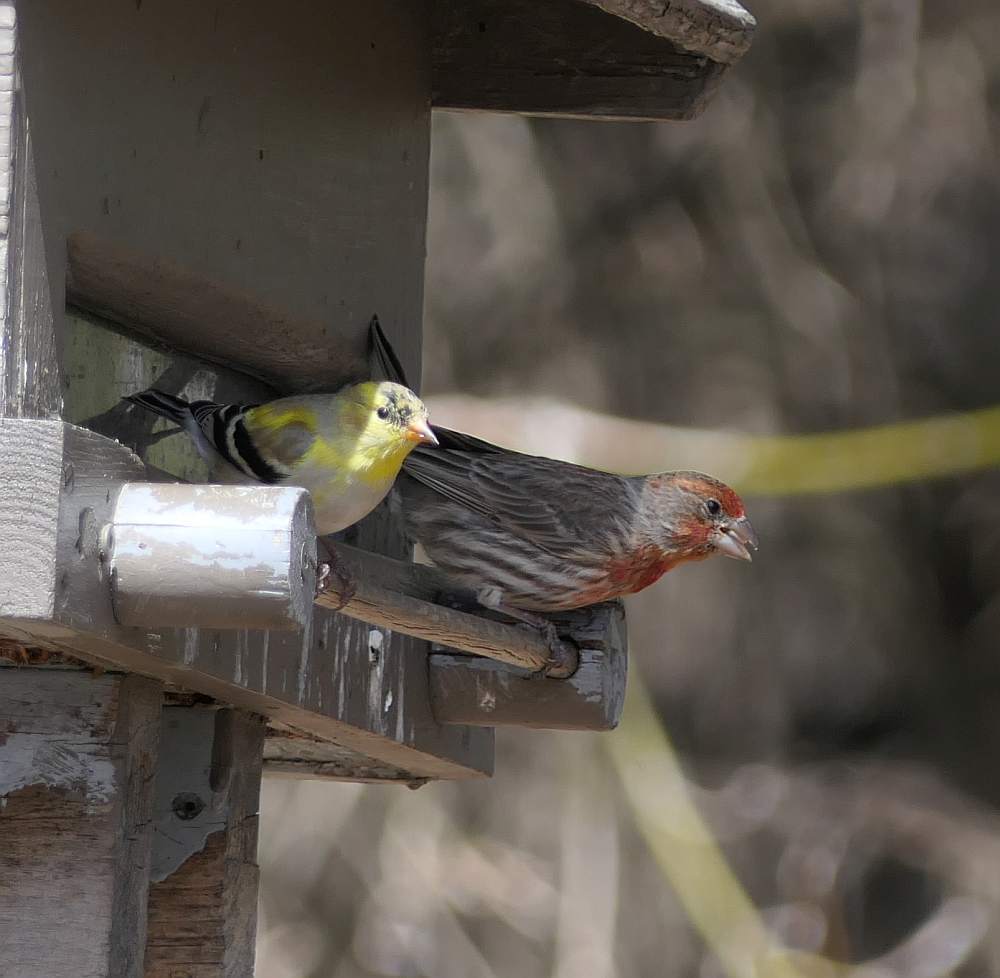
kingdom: Animalia
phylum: Chordata
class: Aves
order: Passeriformes
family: Fringillidae
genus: Haemorhous
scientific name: Haemorhous mexicanus
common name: House finch
